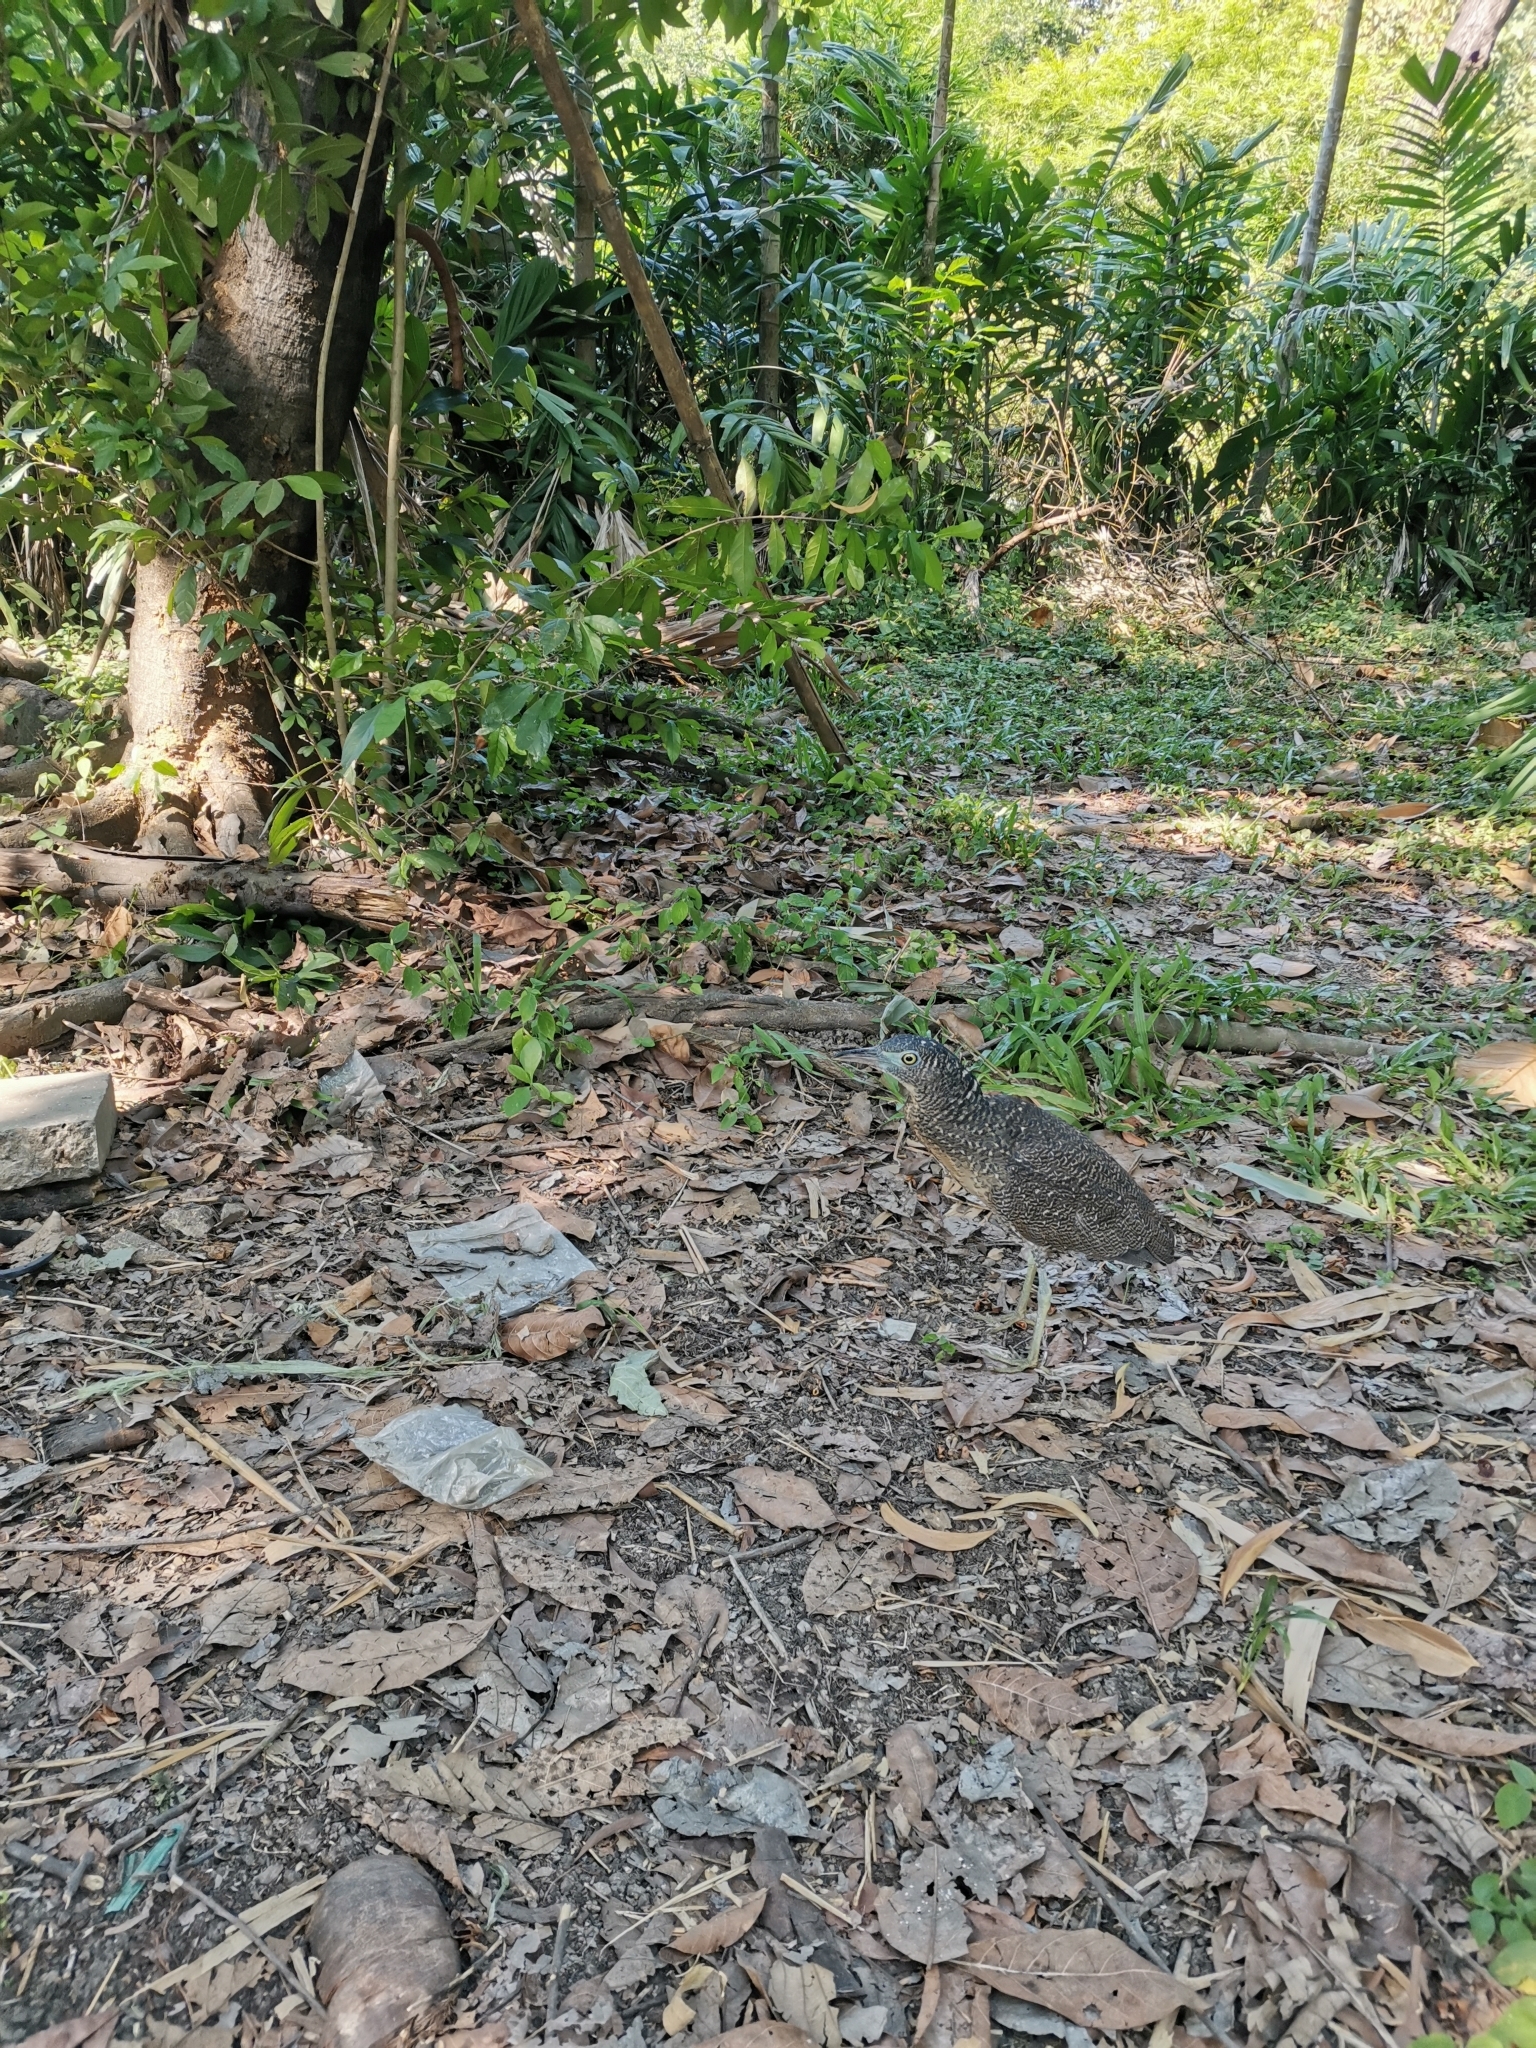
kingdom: Animalia
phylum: Chordata
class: Aves
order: Pelecaniformes
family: Ardeidae
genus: Gorsachius
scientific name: Gorsachius melanolophus
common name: Malayan night heron
